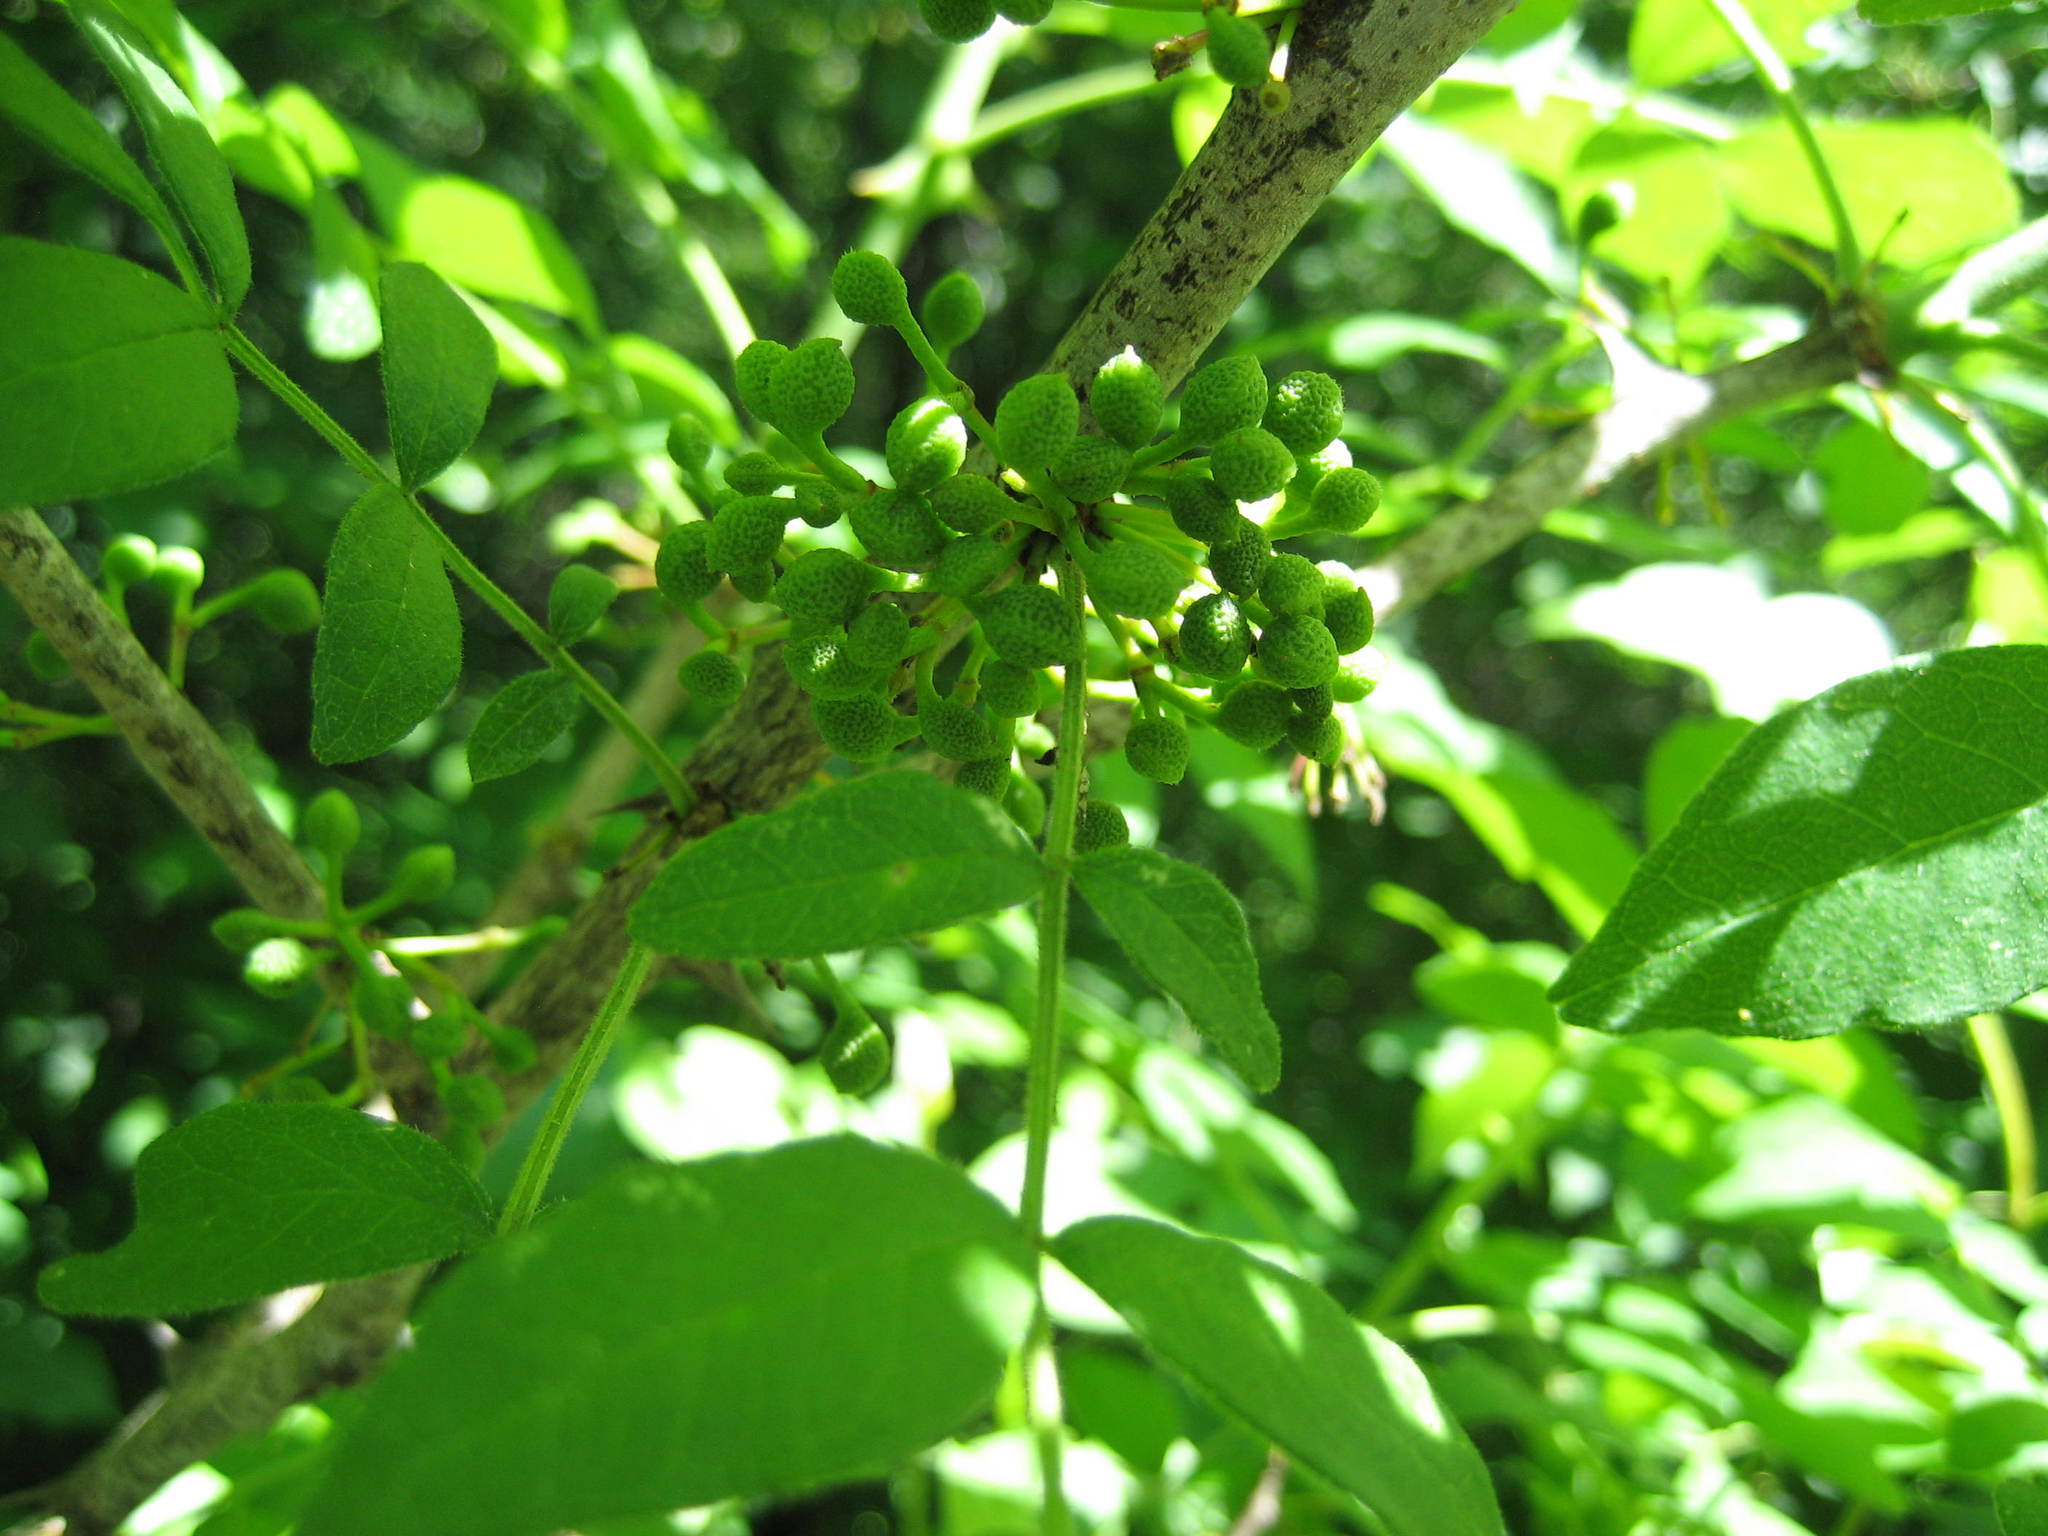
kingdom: Plantae
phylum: Tracheophyta
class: Magnoliopsida
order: Sapindales
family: Rutaceae
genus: Zanthoxylum
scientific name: Zanthoxylum americanum
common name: Northern prickly-ash
